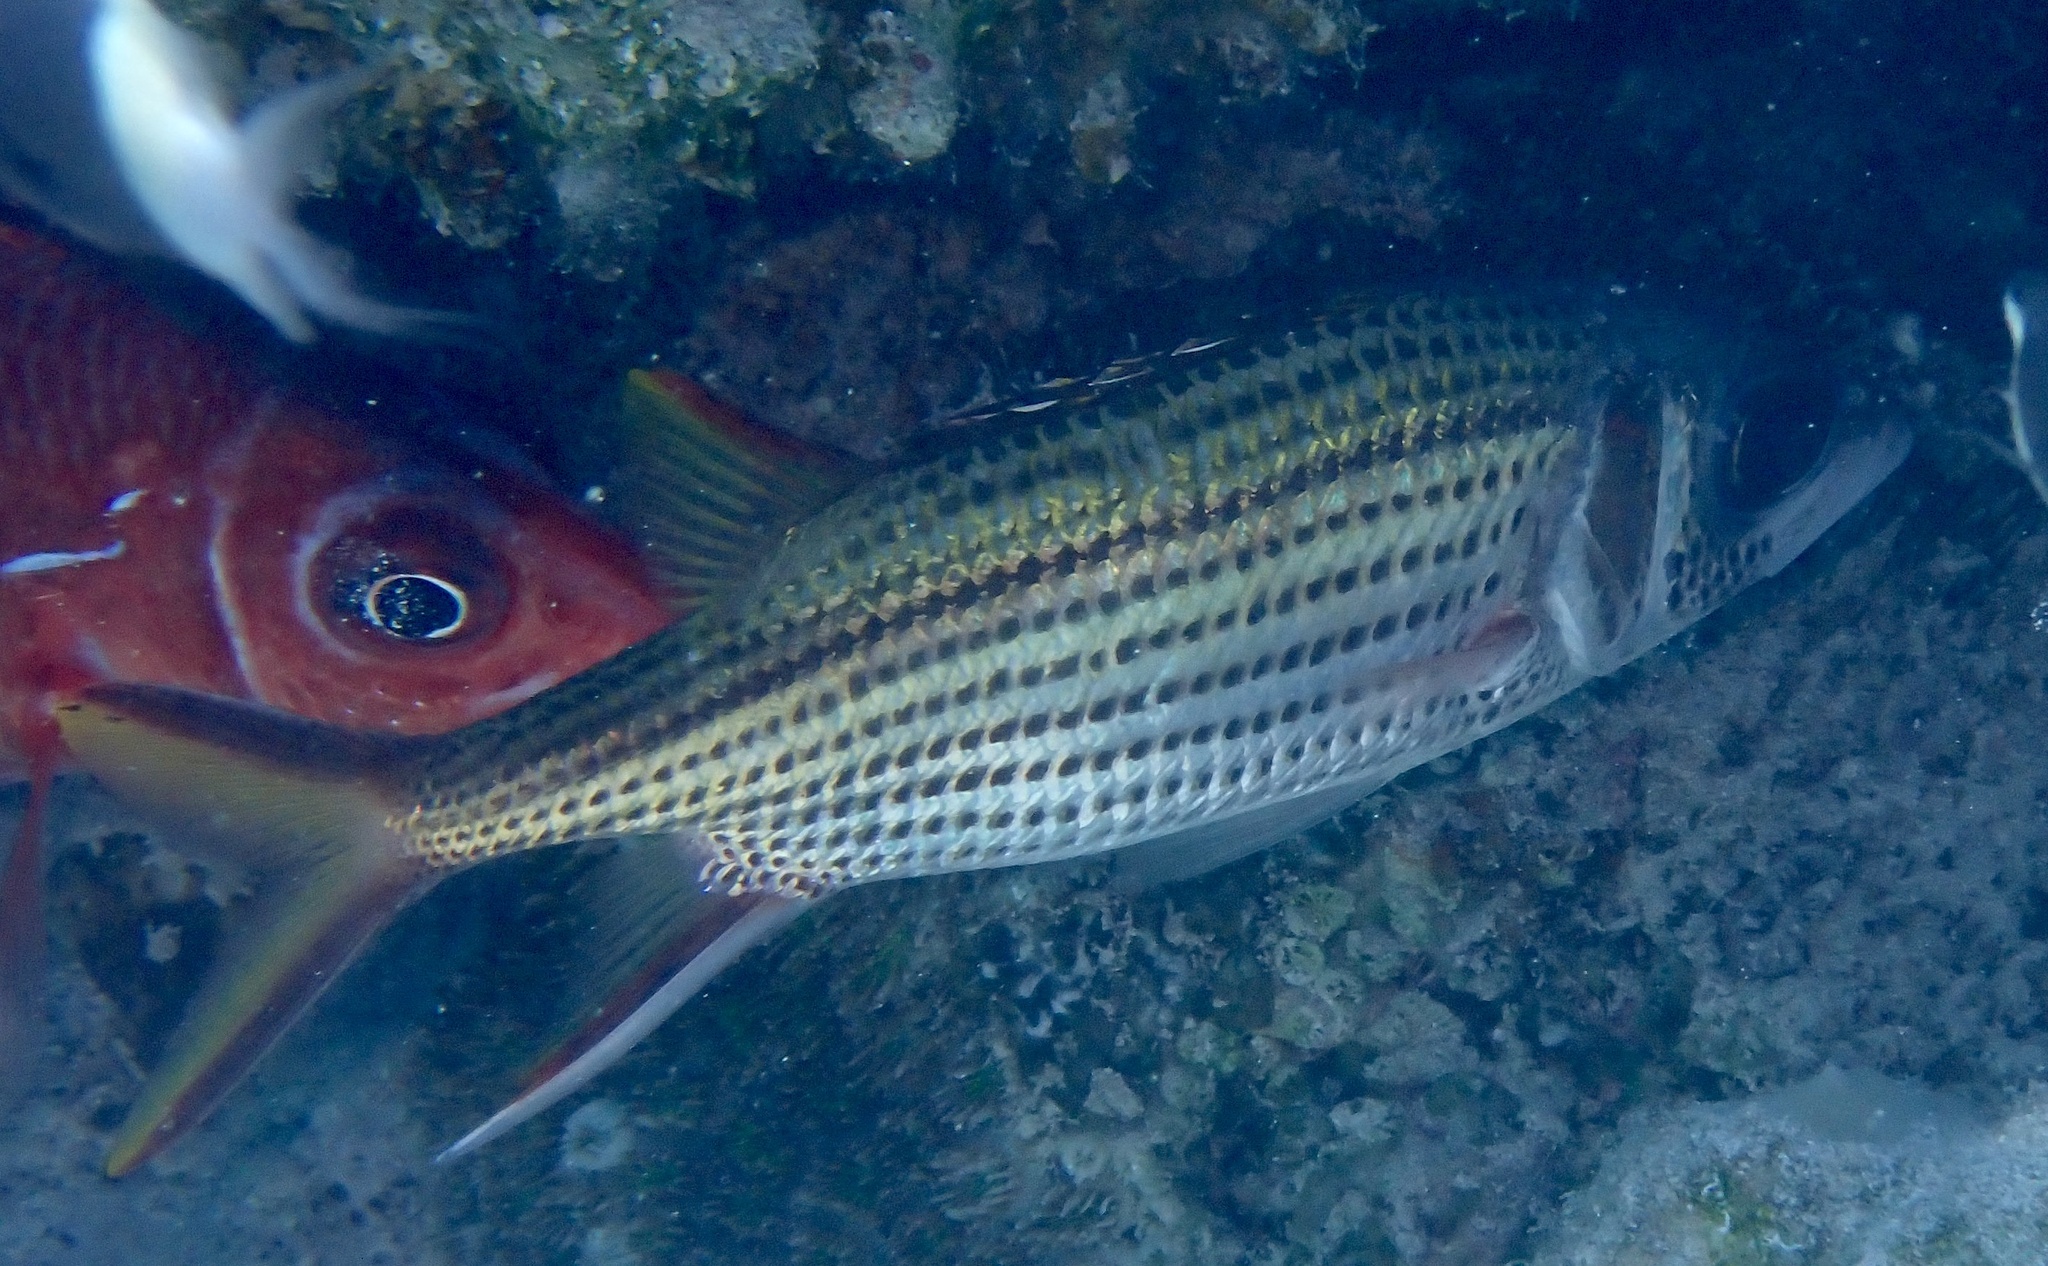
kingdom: Animalia
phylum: Chordata
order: Beryciformes
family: Holocentridae
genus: Neoniphon
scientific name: Neoniphon sammara
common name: Sammara squirrelfish
